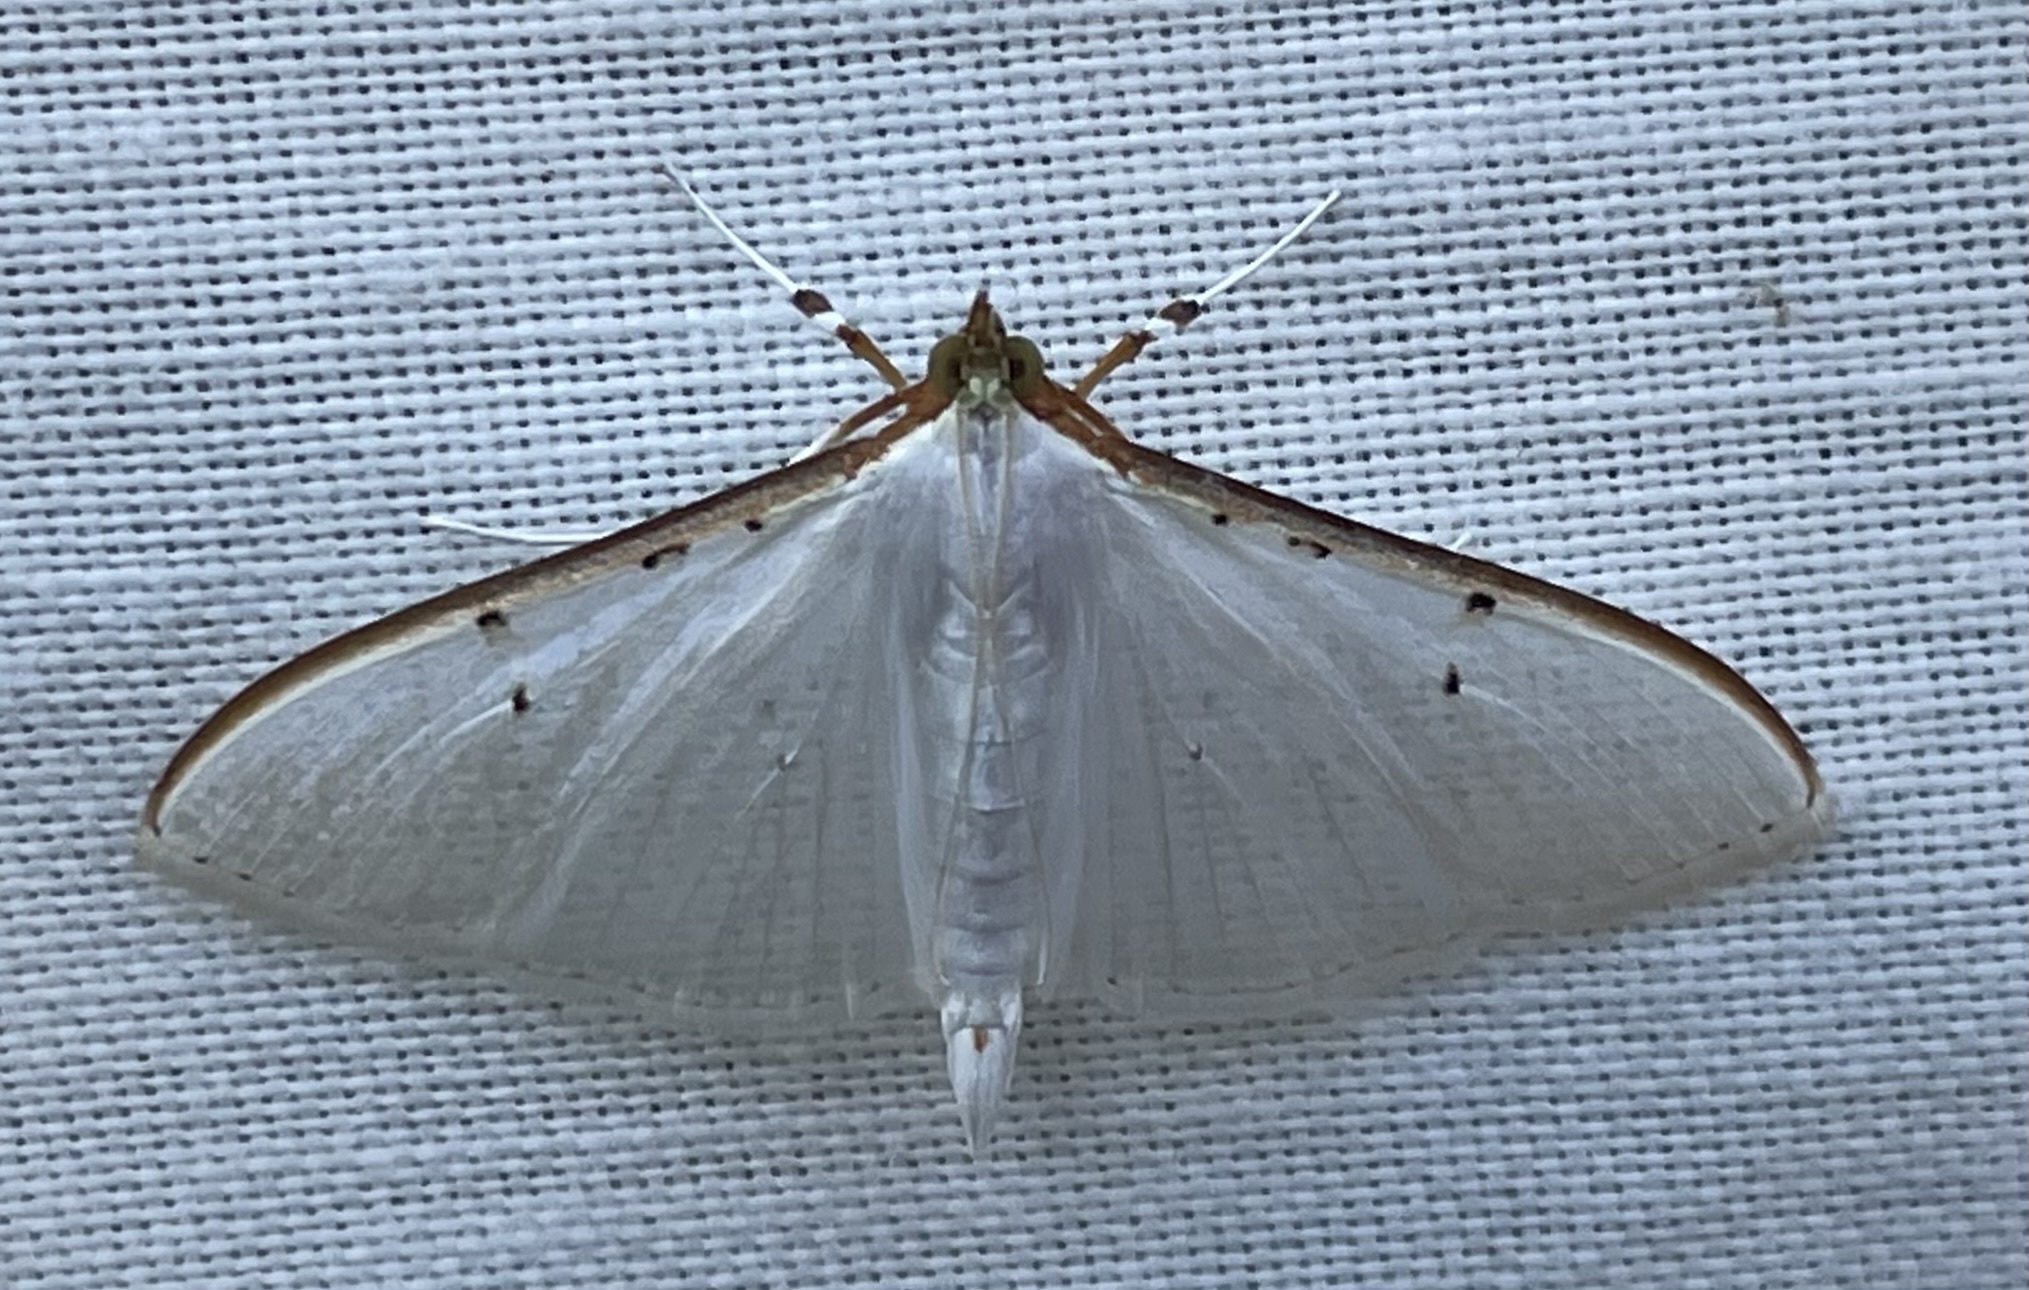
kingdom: Animalia
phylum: Arthropoda
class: Insecta
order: Lepidoptera
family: Crambidae
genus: Palpita
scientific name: Palpita vitrealis
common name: Olive-tree pearl
